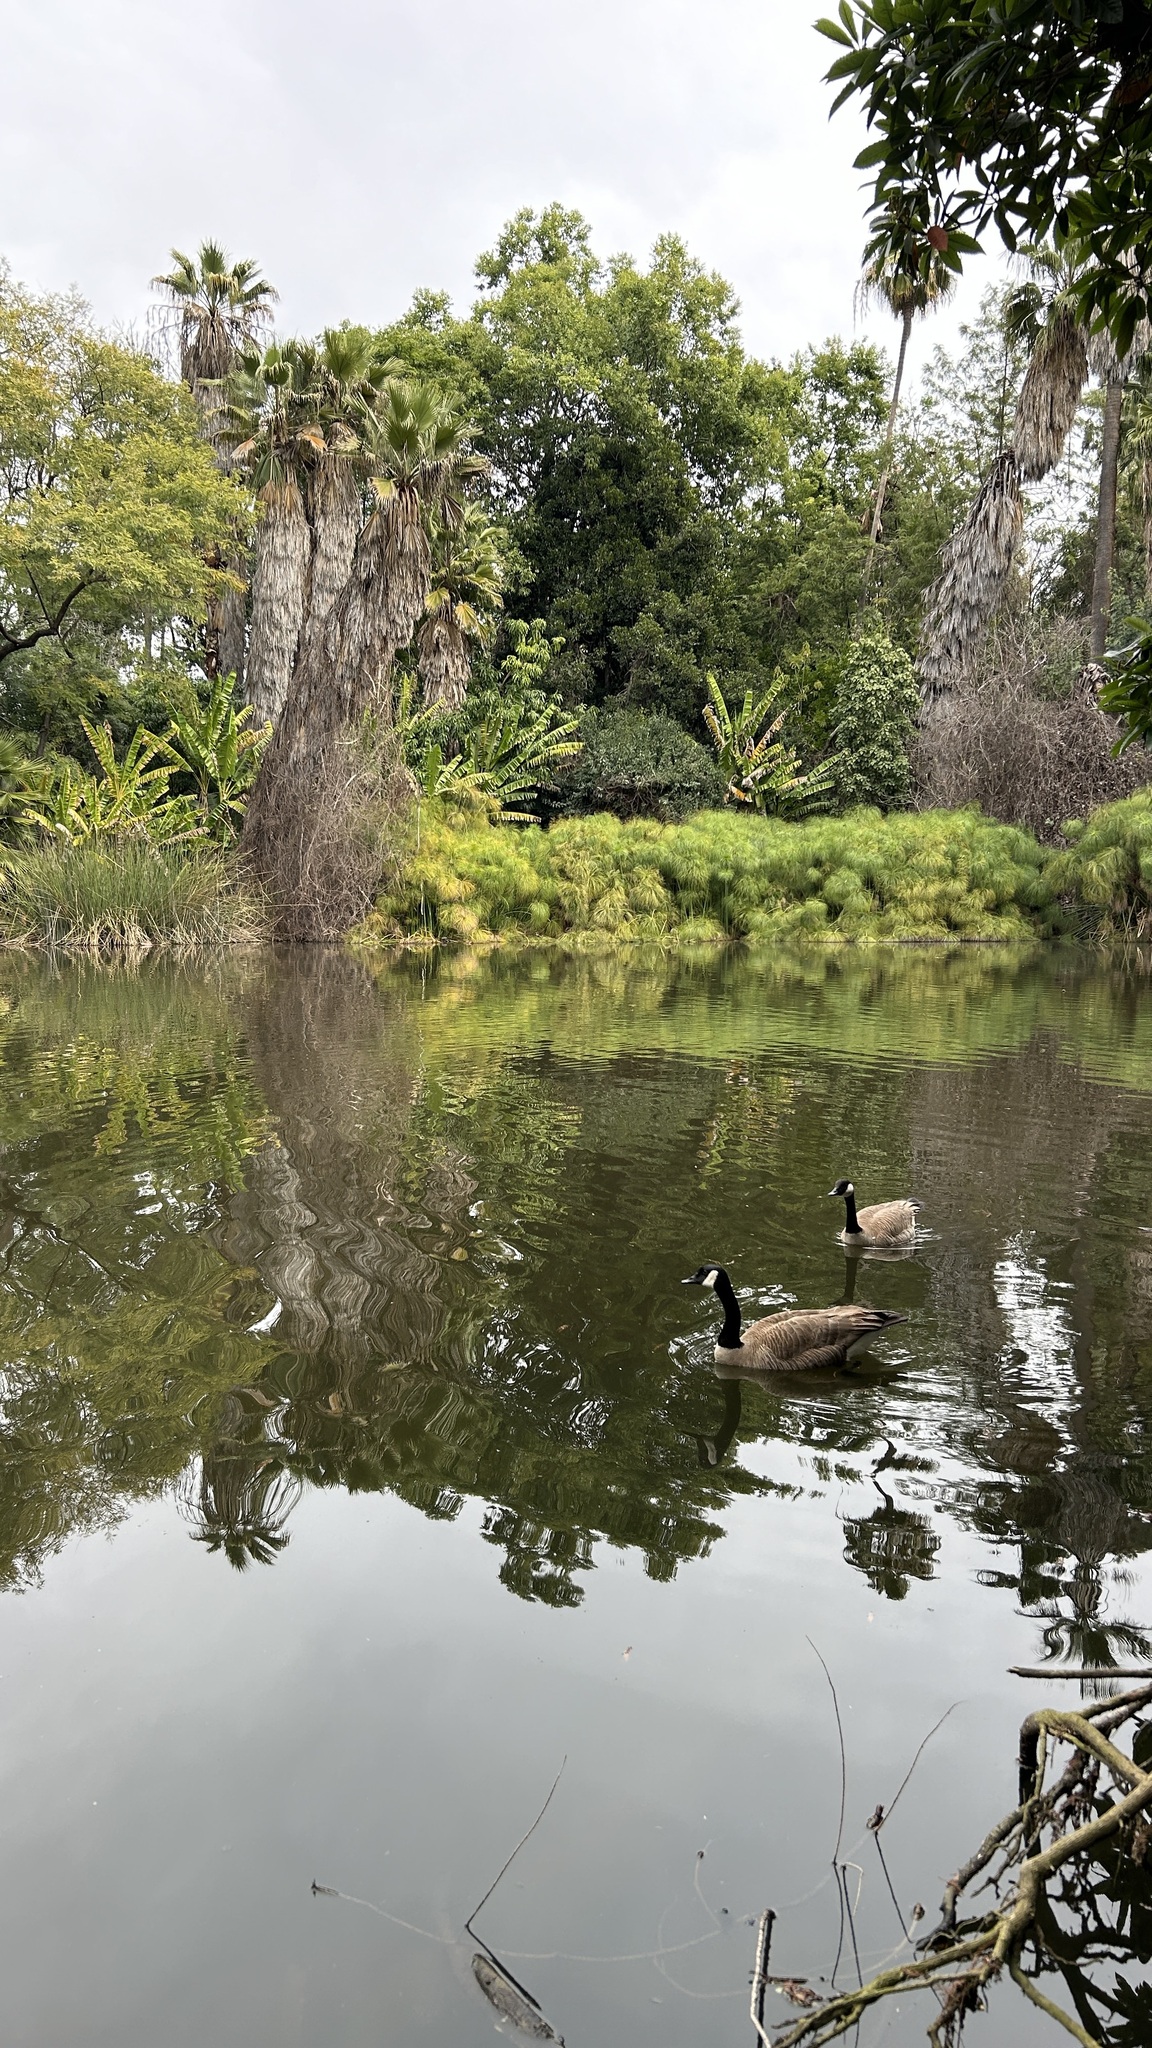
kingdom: Animalia
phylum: Chordata
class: Aves
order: Anseriformes
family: Anatidae
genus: Branta
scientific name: Branta canadensis
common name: Canada goose
